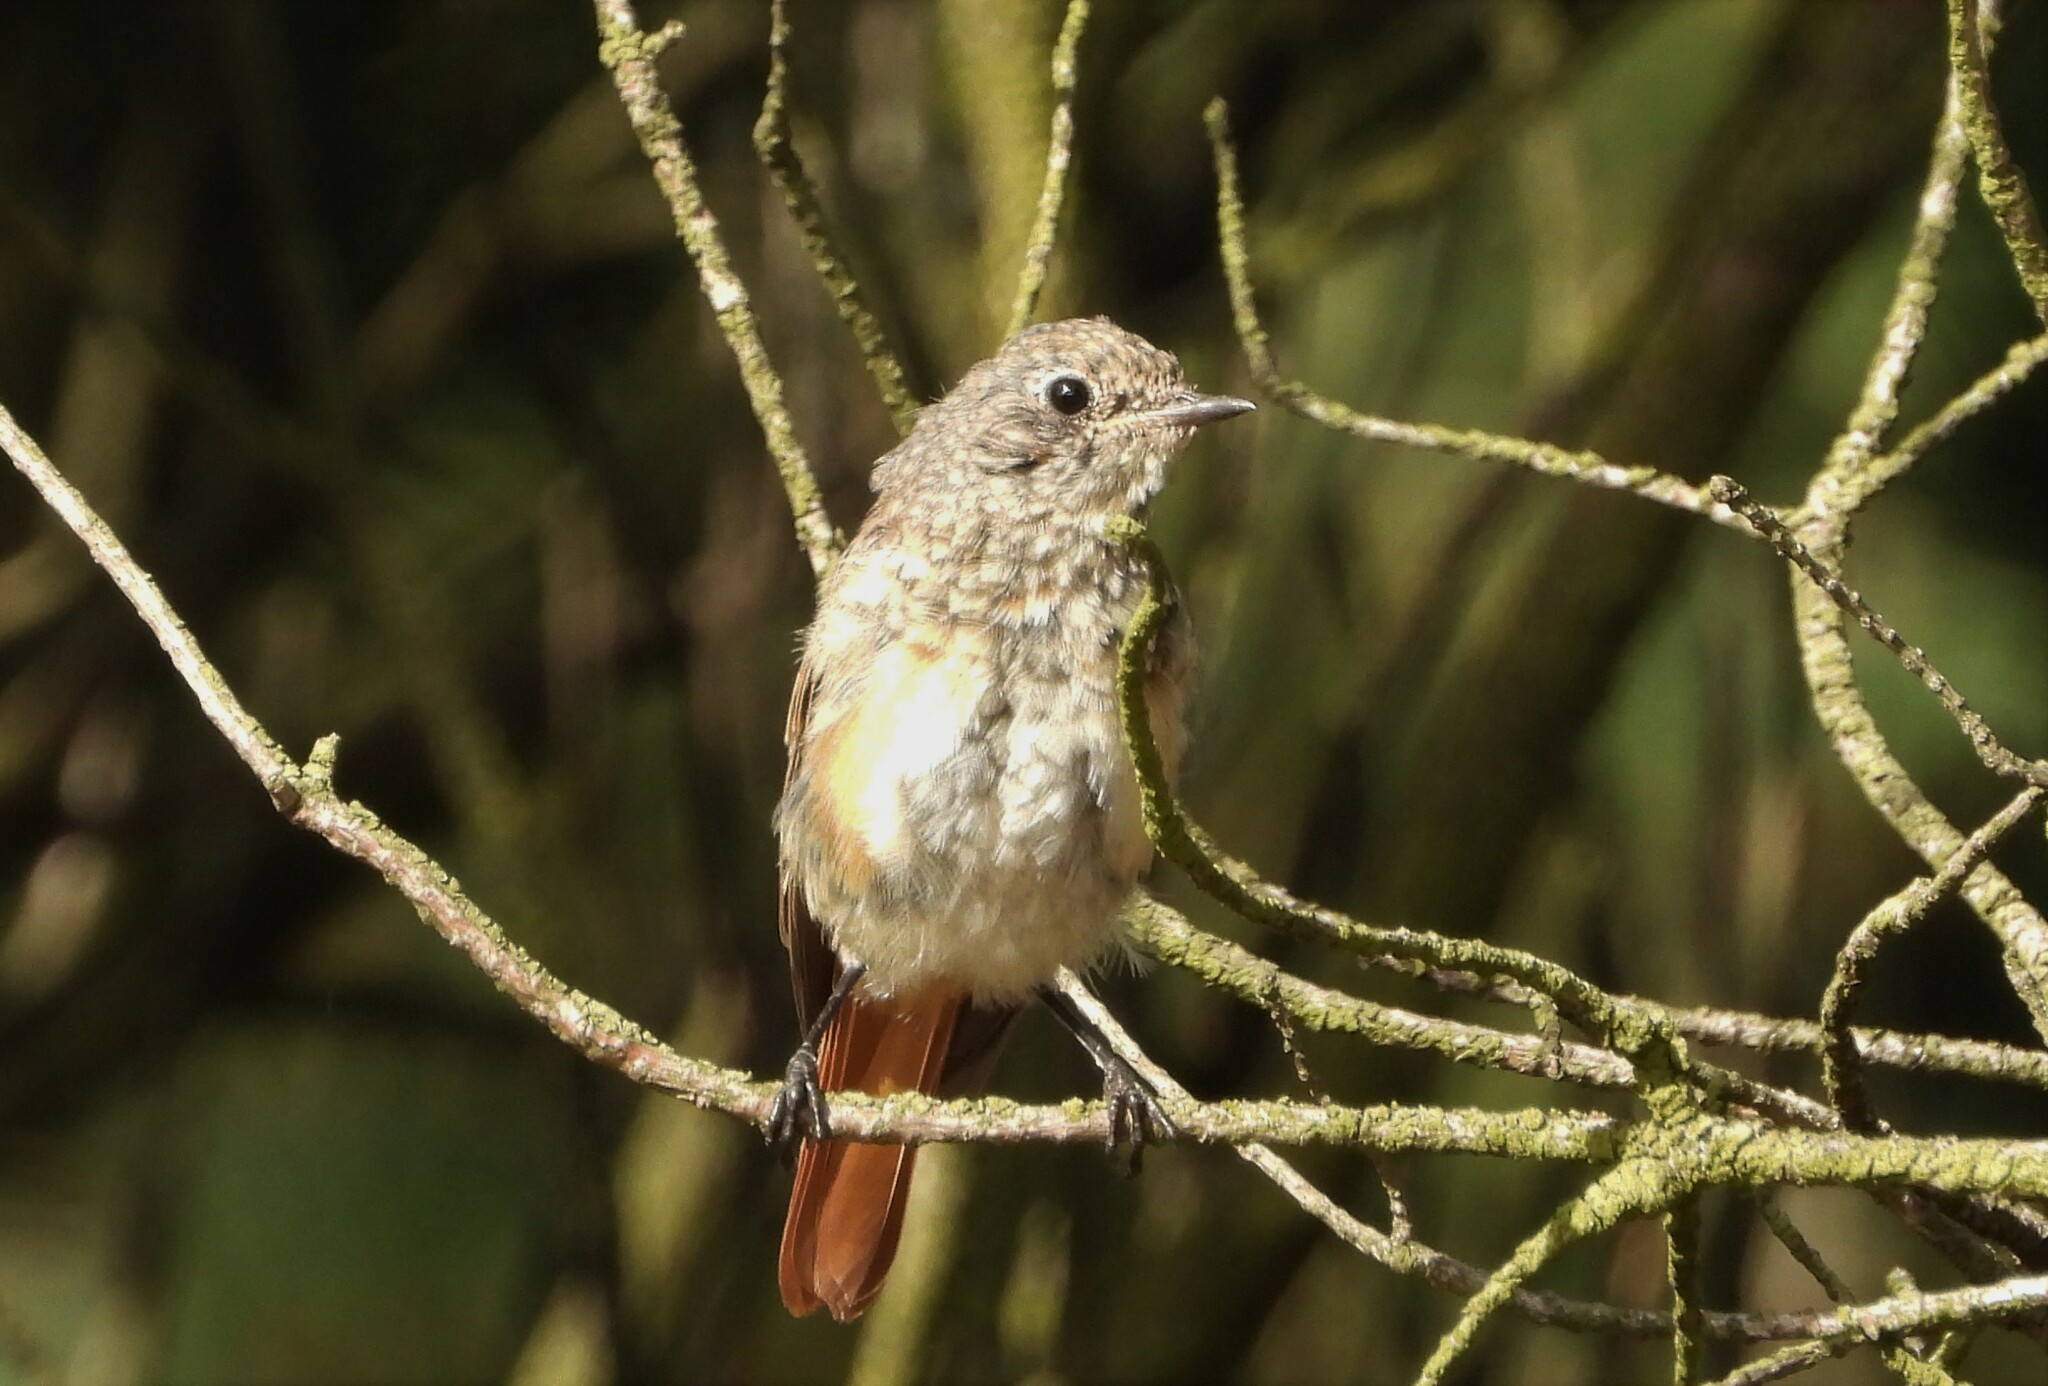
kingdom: Animalia
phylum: Chordata
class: Aves
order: Passeriformes
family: Muscicapidae
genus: Phoenicurus
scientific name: Phoenicurus phoenicurus
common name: Common redstart
